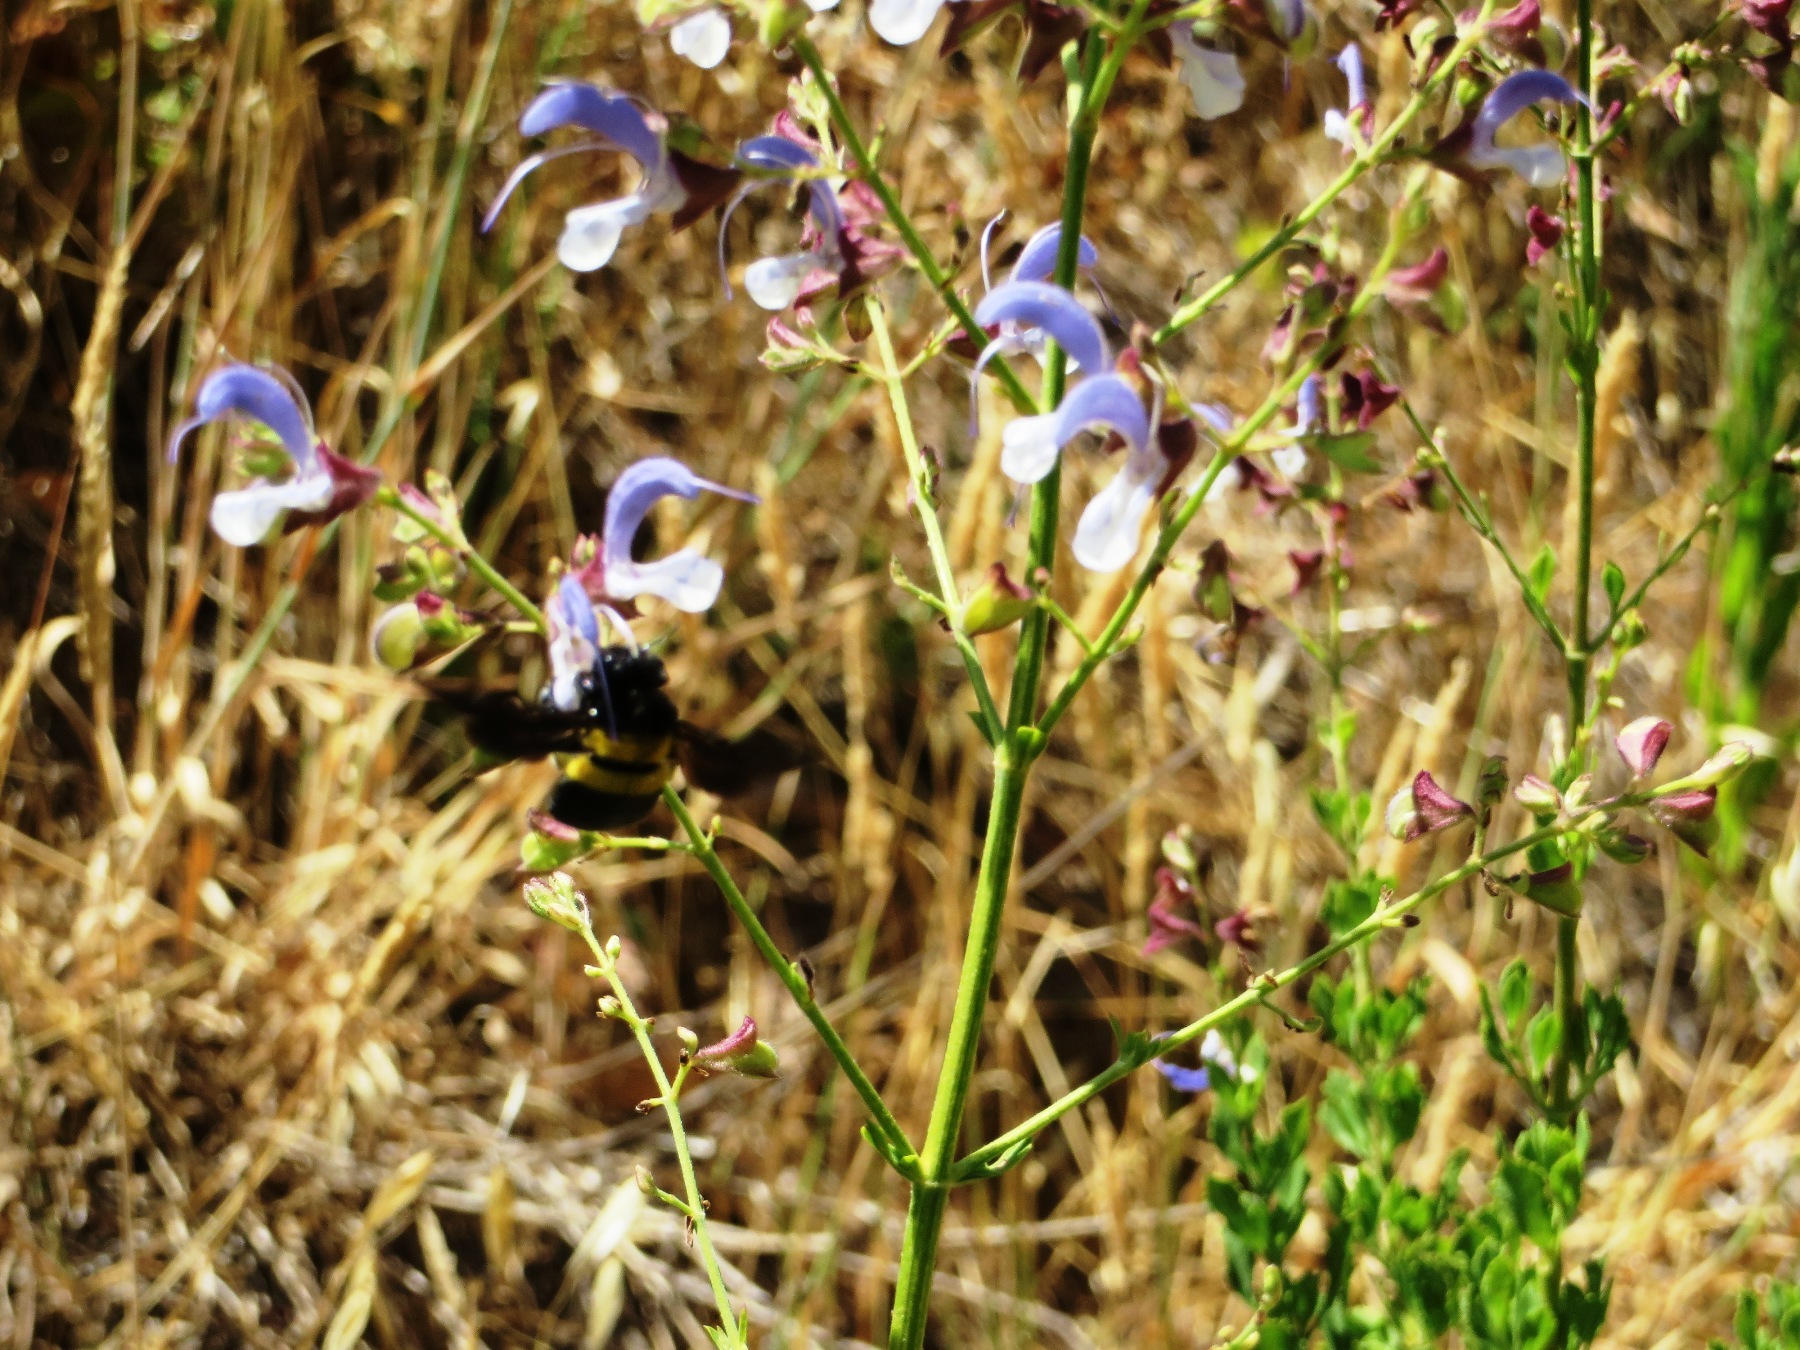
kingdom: Plantae
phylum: Tracheophyta
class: Magnoliopsida
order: Lamiales
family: Lamiaceae
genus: Salvia
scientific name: Salvia chamelaeagnea
